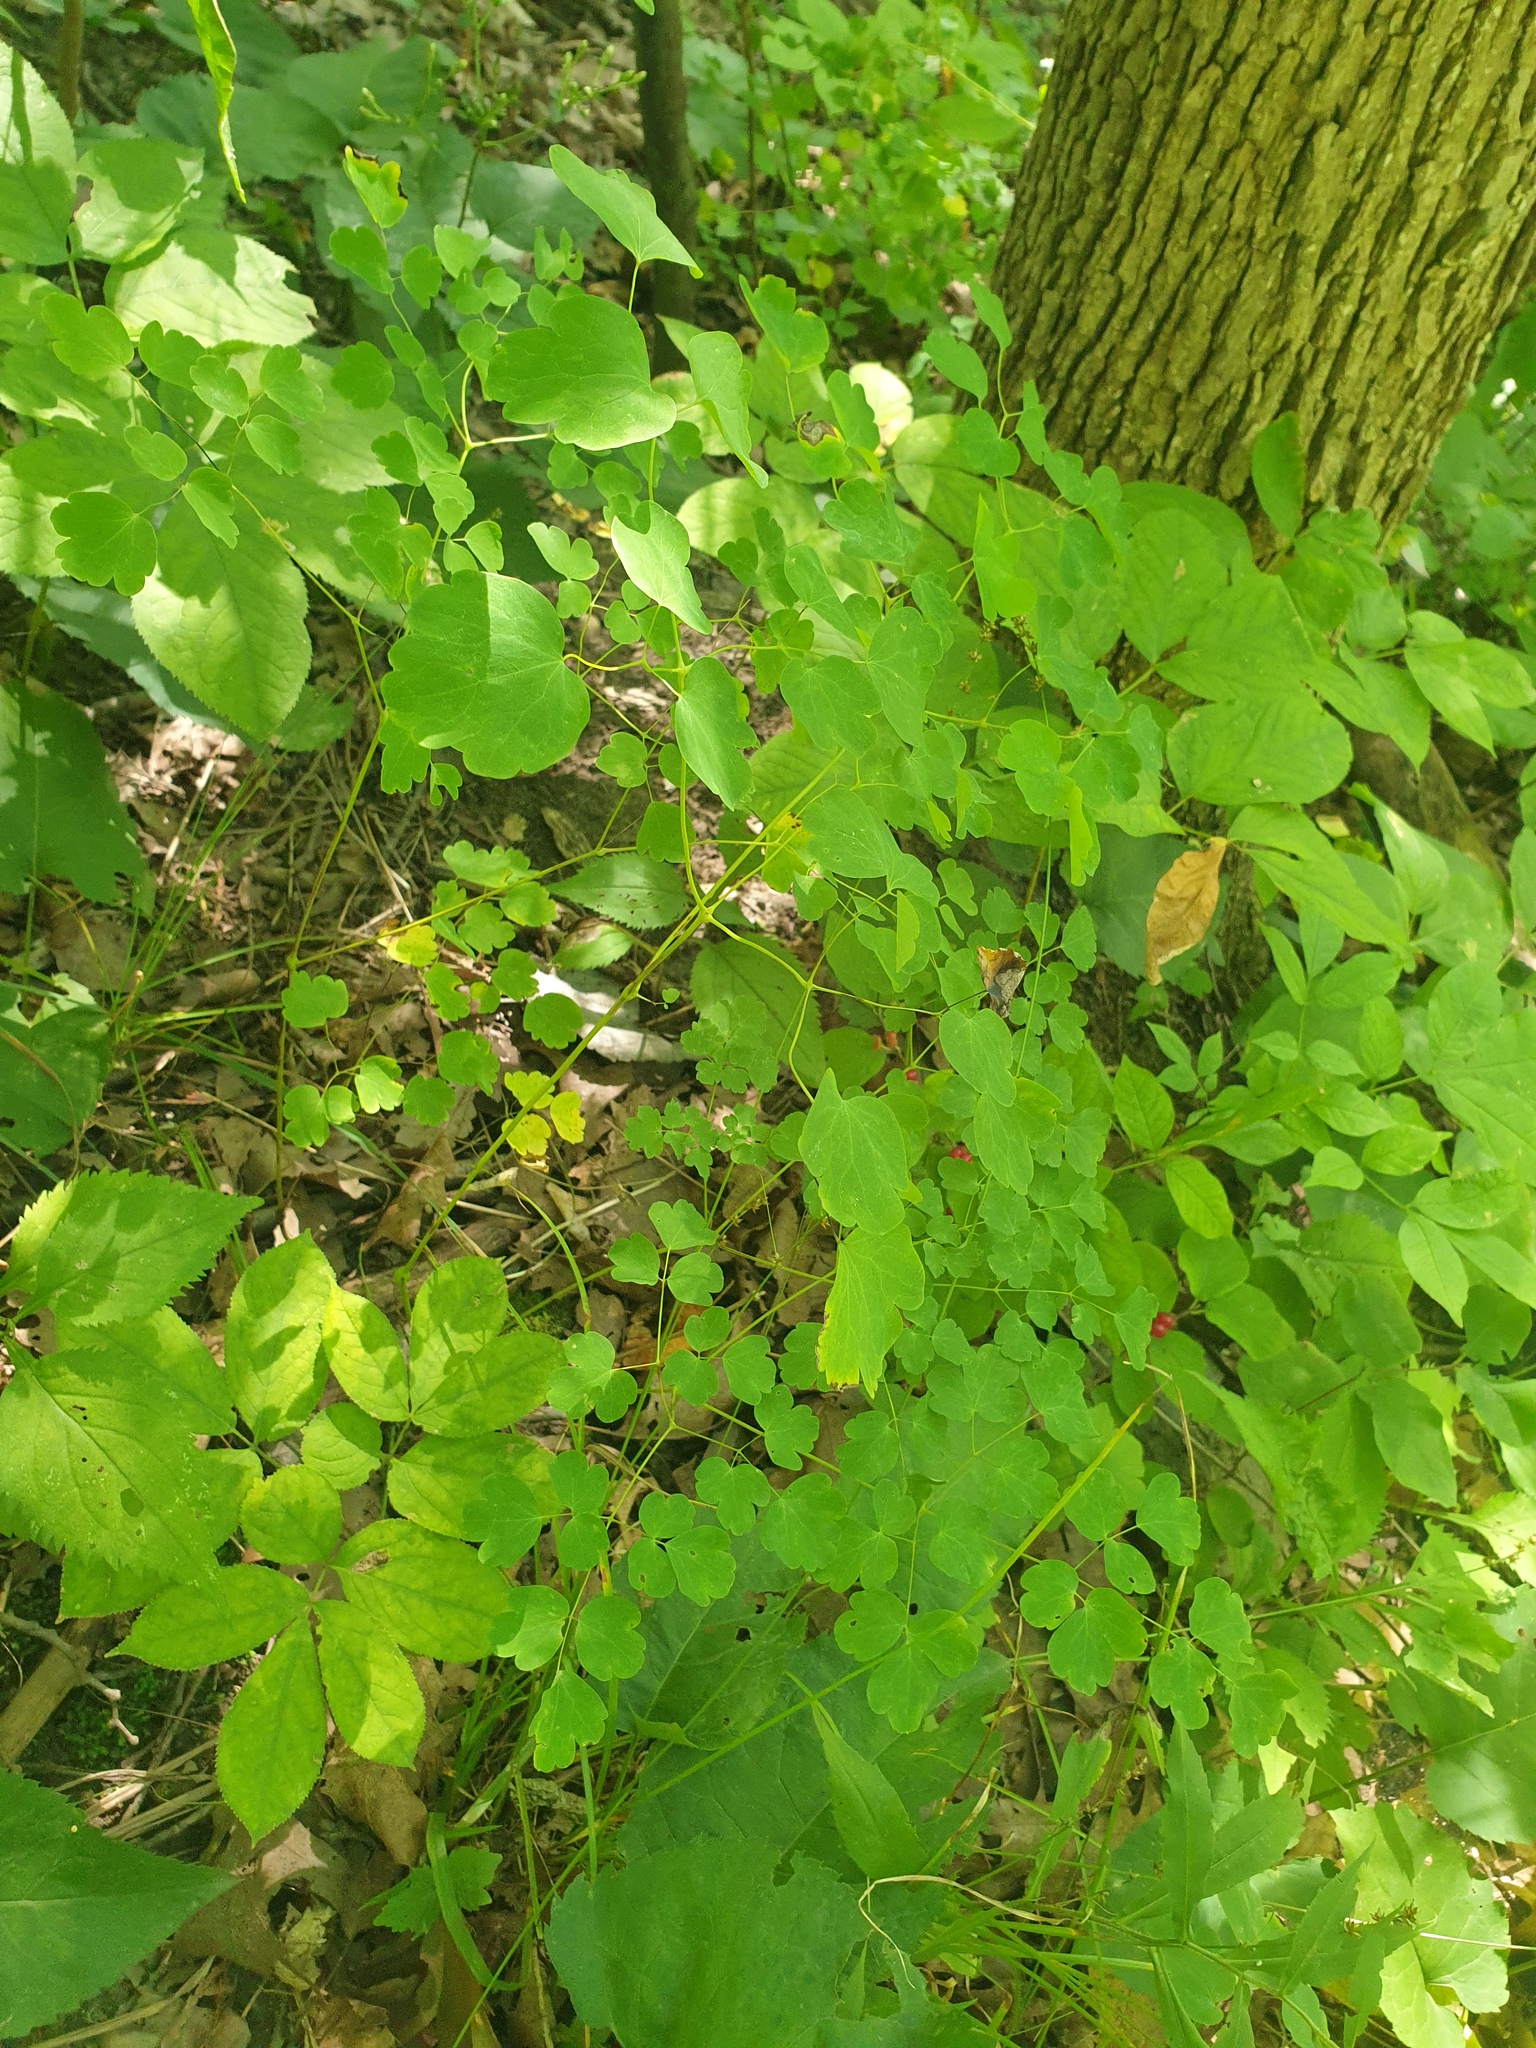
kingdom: Plantae
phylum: Tracheophyta
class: Magnoliopsida
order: Ranunculales
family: Ranunculaceae
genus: Thalictrum
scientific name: Thalictrum dioicum
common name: Early meadow-rue
